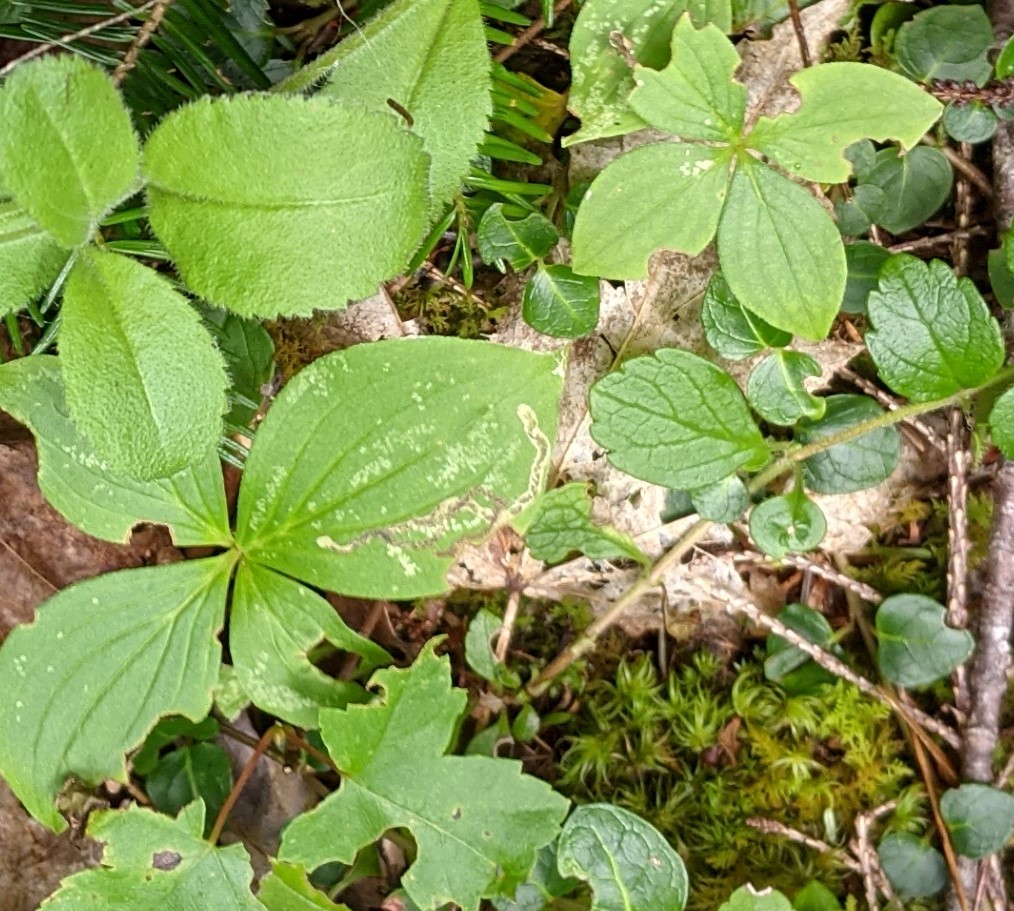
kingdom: Animalia
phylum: Arthropoda
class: Insecta
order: Diptera
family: Agromyzidae
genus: Phytomyza
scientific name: Phytomyza agromyzina
